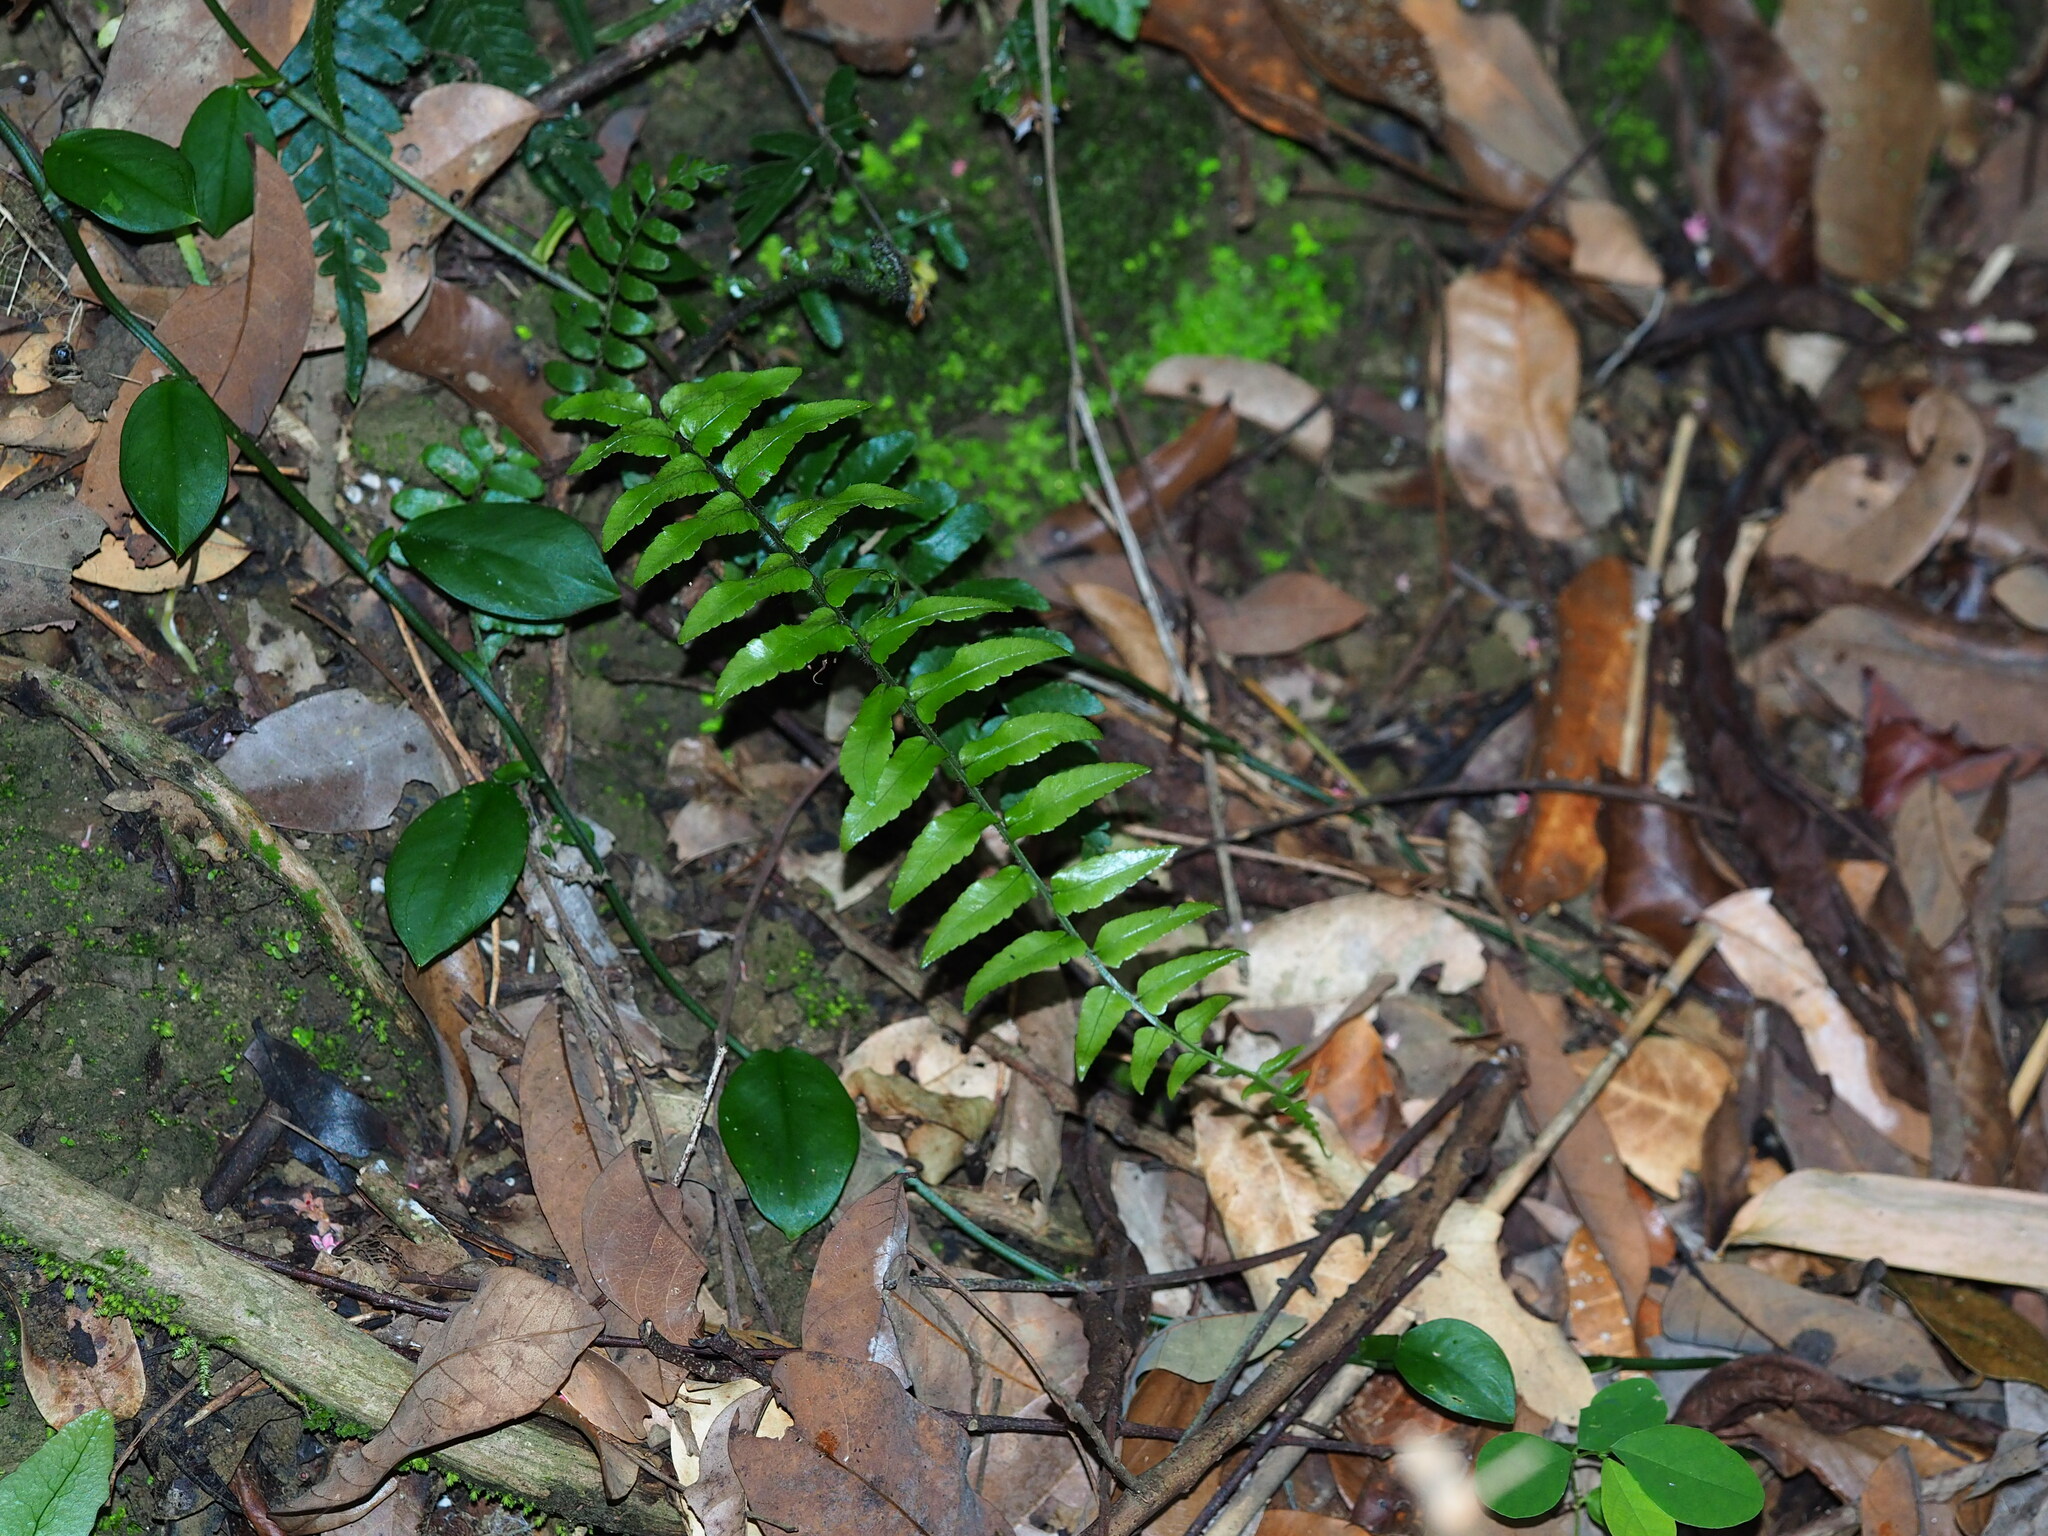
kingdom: Plantae
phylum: Tracheophyta
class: Polypodiopsida
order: Polypodiales
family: Dryopteridaceae
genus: Bolbitis
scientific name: Bolbitis rhizophylla
